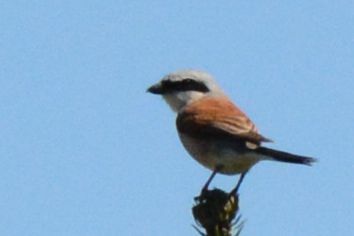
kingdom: Animalia
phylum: Chordata
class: Aves
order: Passeriformes
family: Laniidae
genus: Lanius
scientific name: Lanius collurio
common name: Red-backed shrike
